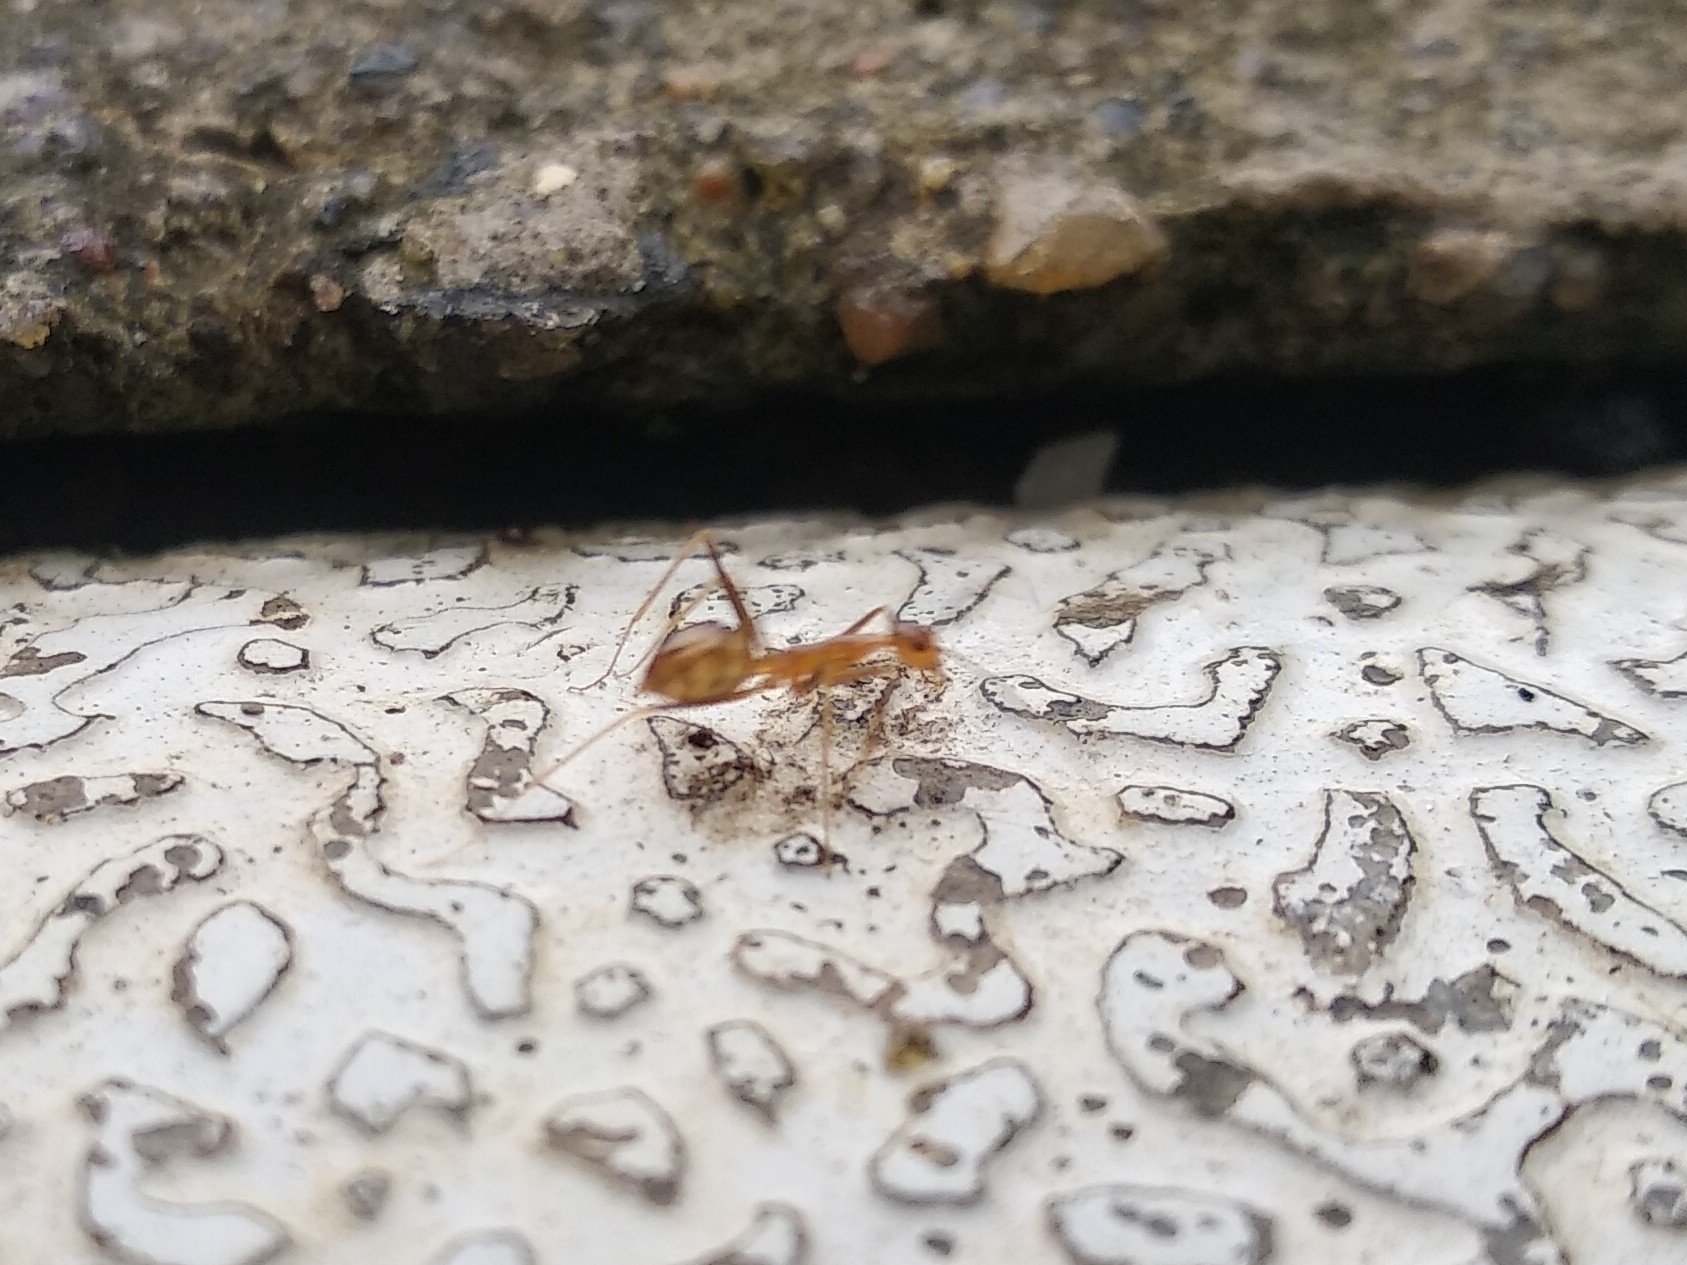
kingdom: Animalia
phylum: Arthropoda
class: Insecta
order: Hymenoptera
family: Formicidae
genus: Anoplolepis
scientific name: Anoplolepis gracilipes
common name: Ant
